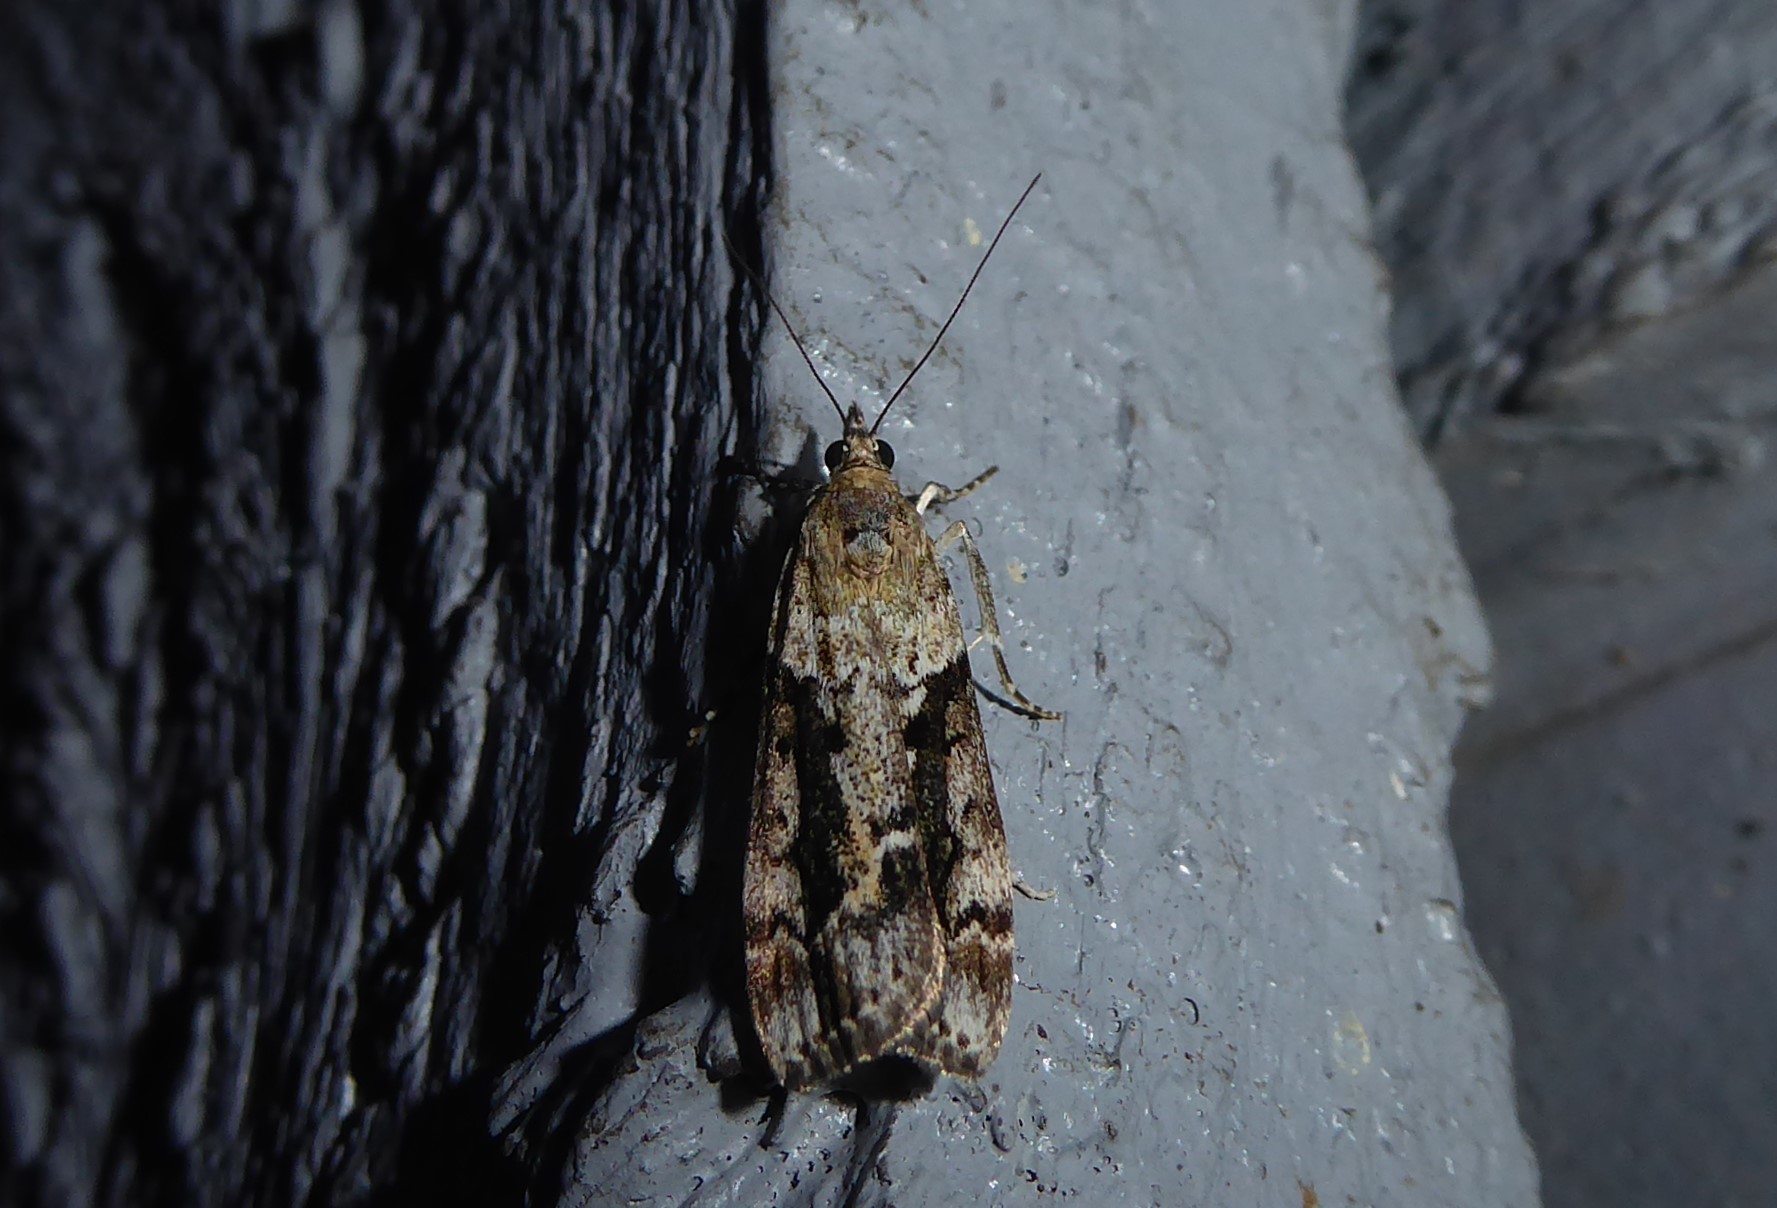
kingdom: Animalia
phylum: Arthropoda
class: Insecta
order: Lepidoptera
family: Crambidae
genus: Eudonia
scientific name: Eudonia submarginalis
